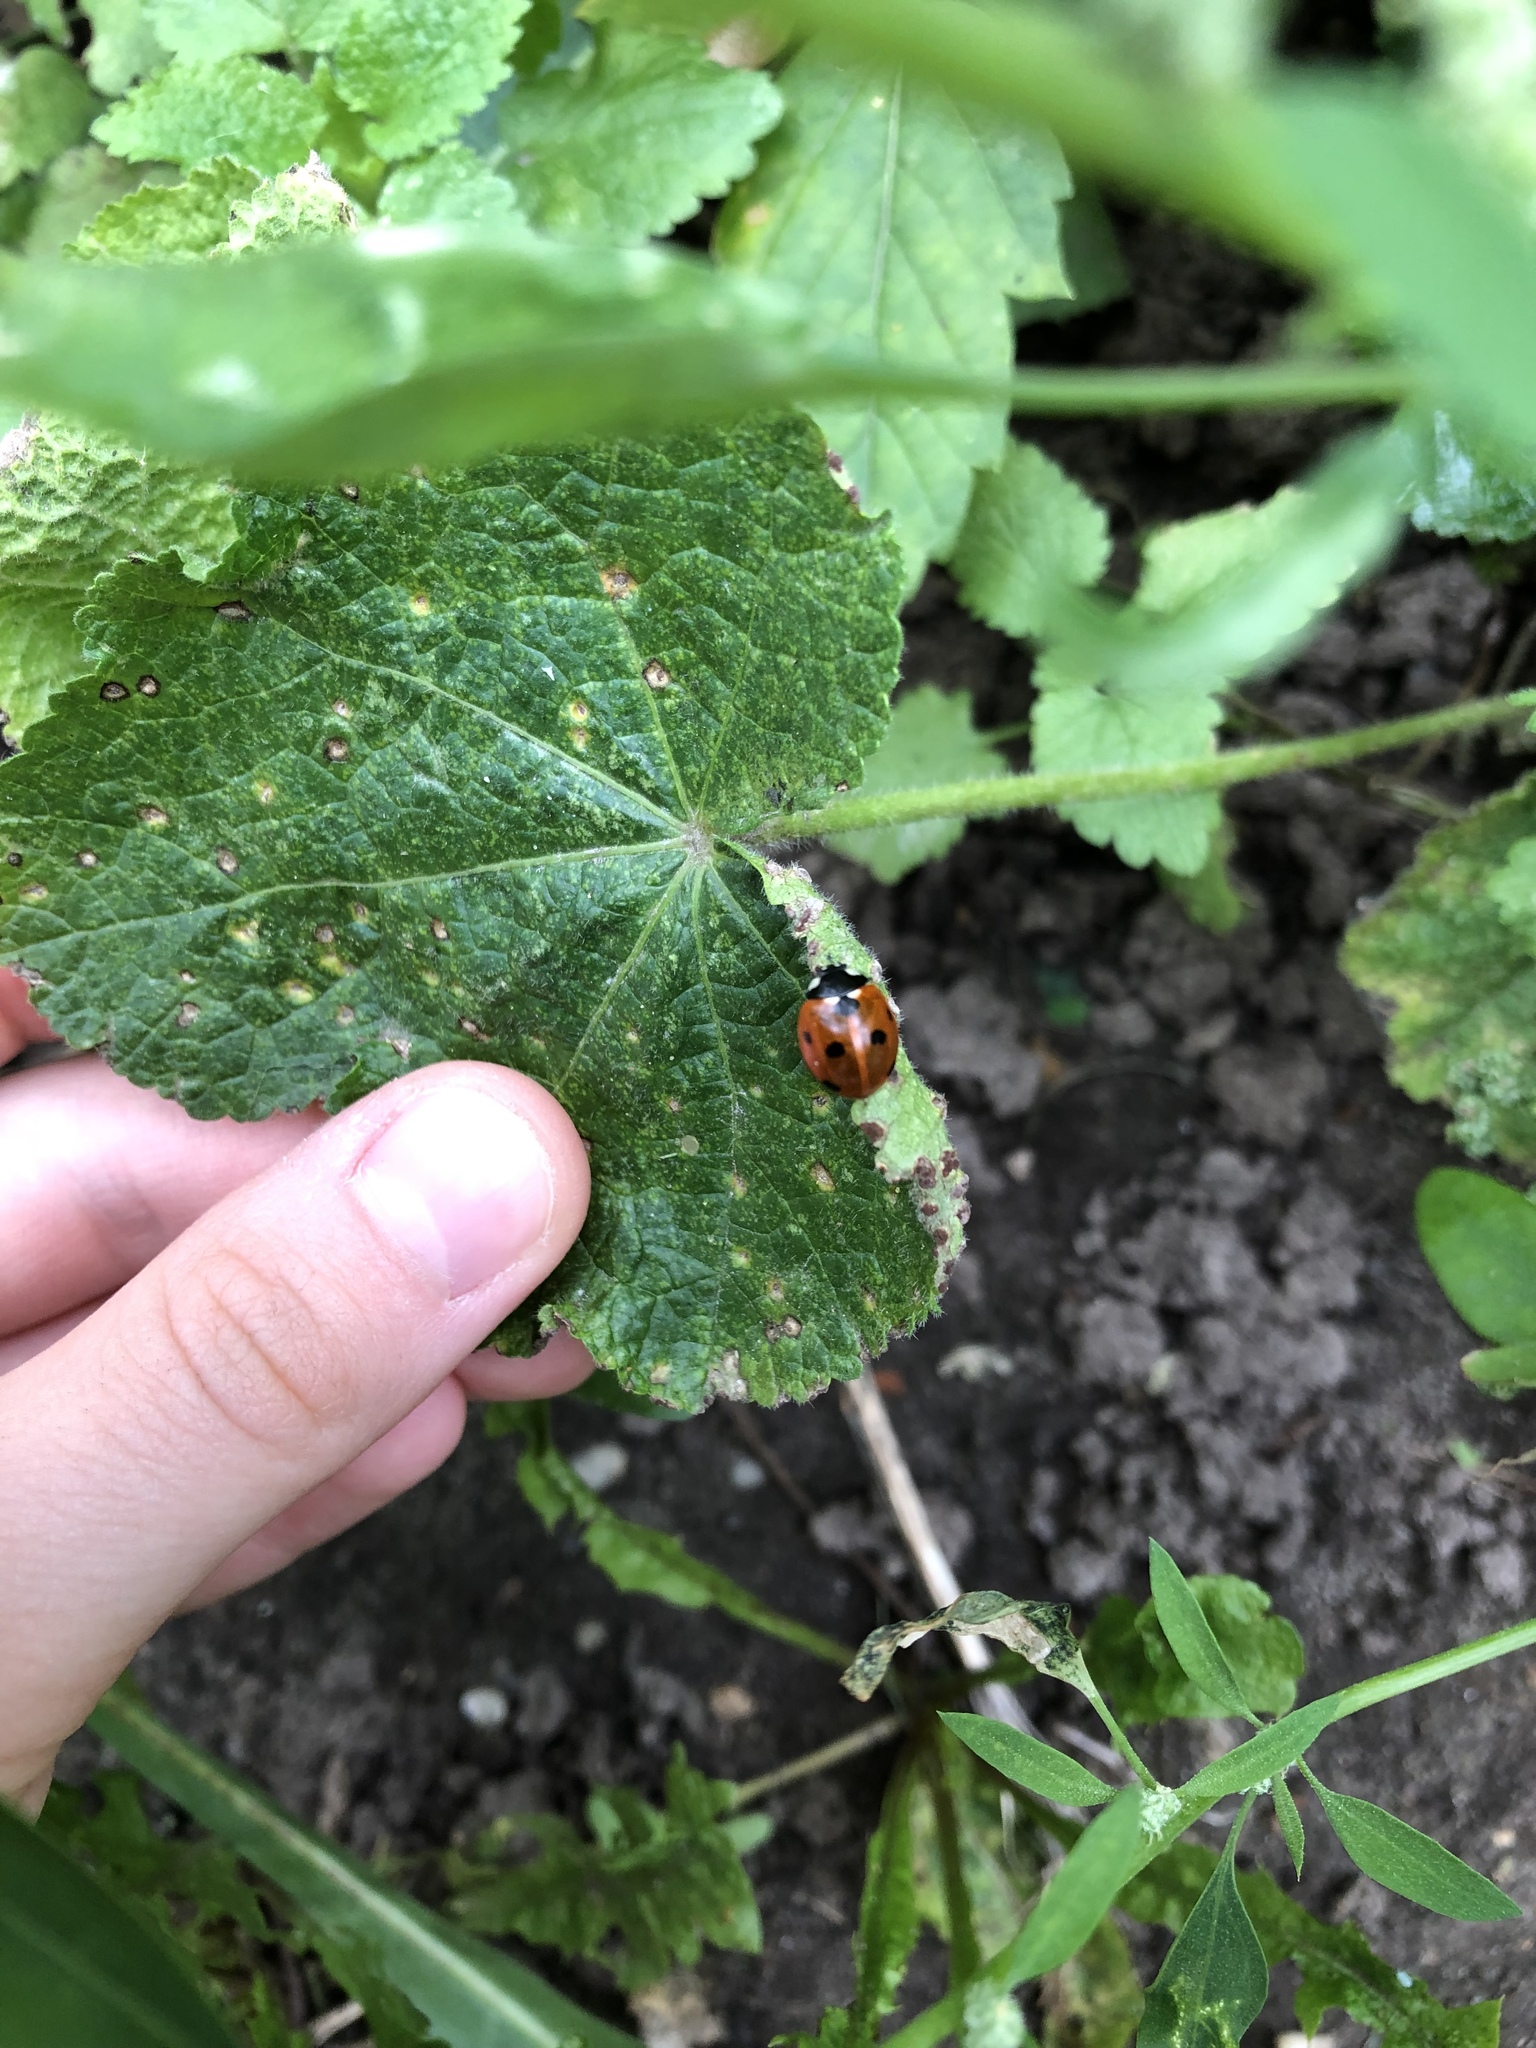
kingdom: Animalia
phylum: Arthropoda
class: Insecta
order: Coleoptera
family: Coccinellidae
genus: Coccinella
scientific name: Coccinella septempunctata
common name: Sevenspotted lady beetle
